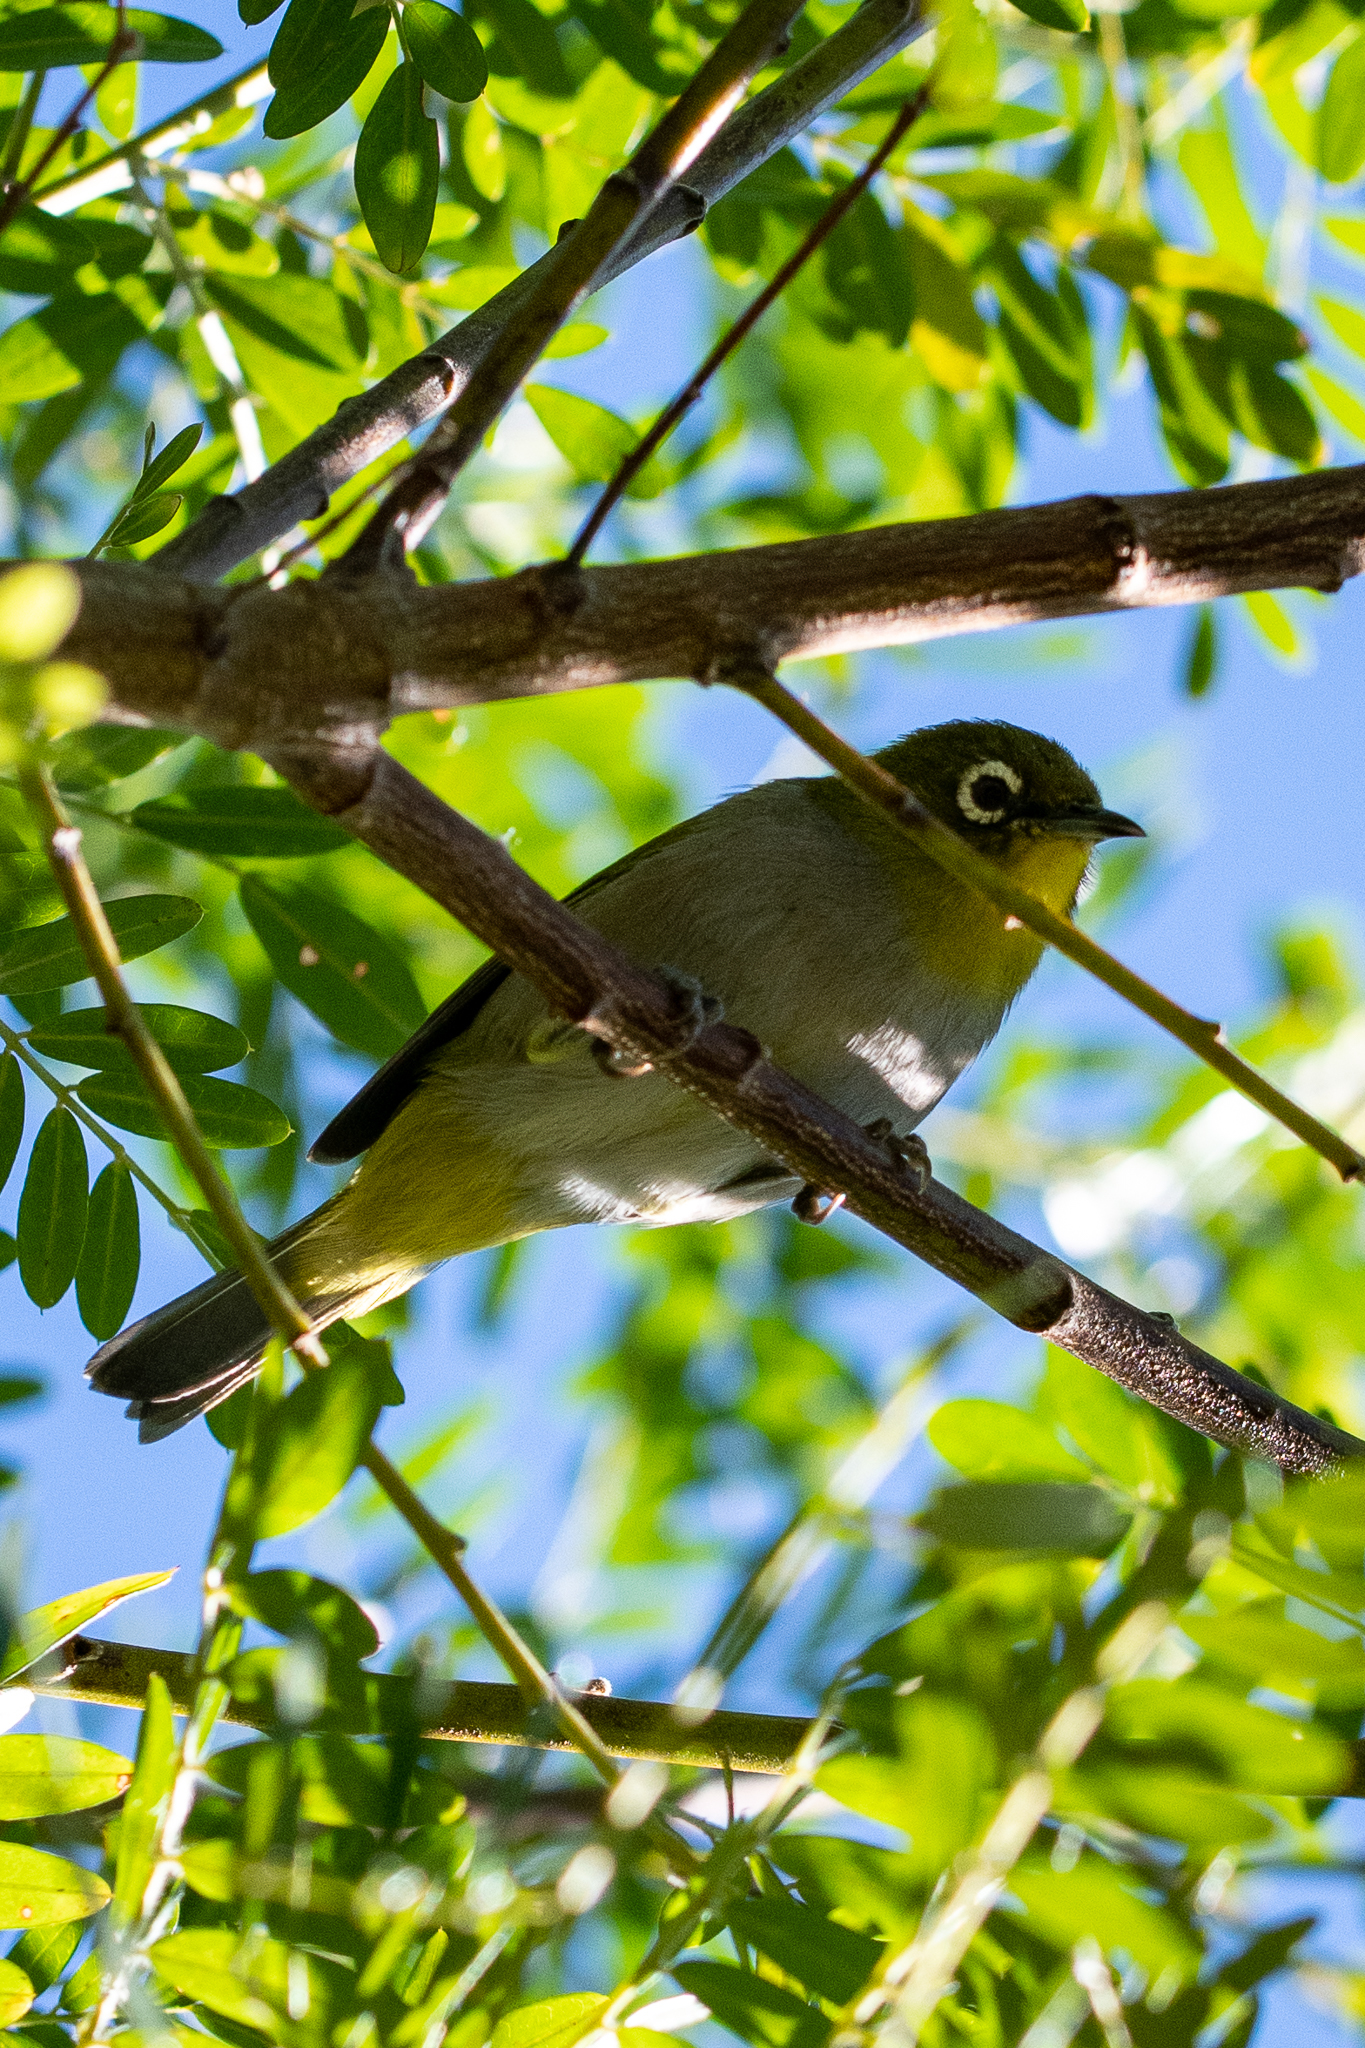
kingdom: Animalia
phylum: Chordata
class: Aves
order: Passeriformes
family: Zosteropidae
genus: Zosterops
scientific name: Zosterops virens
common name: Cape white-eye
